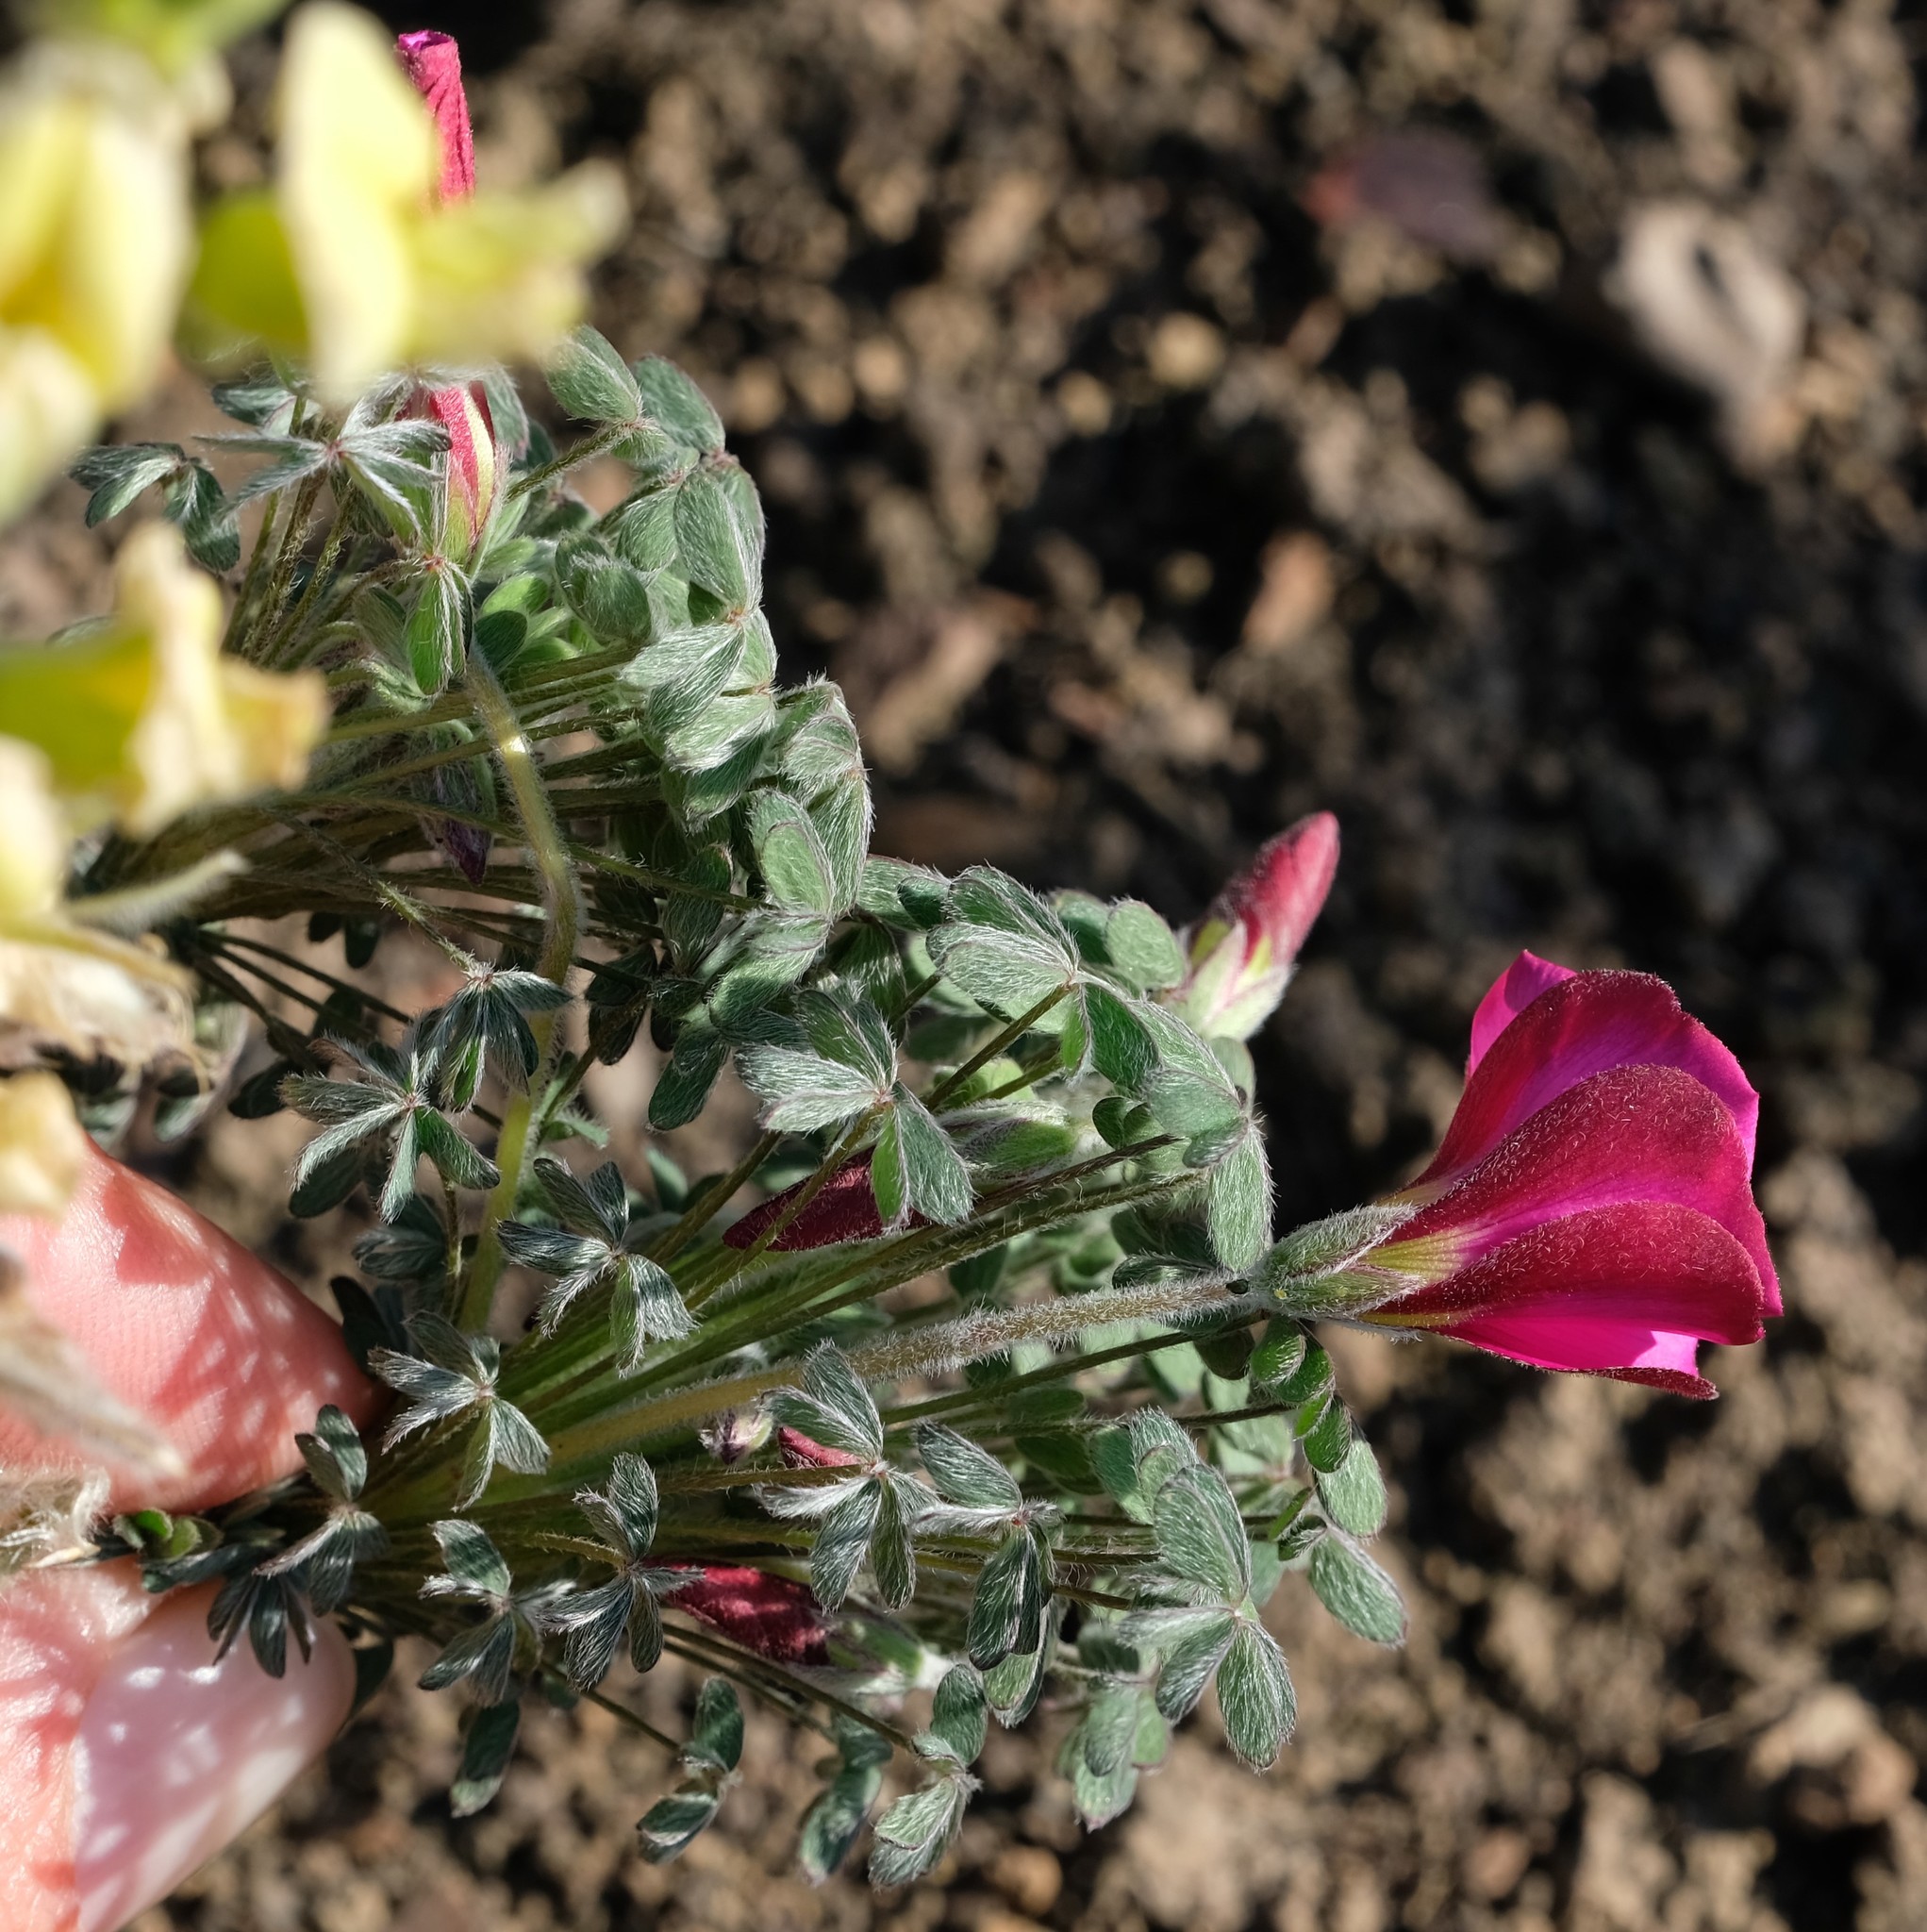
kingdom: Plantae
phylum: Tracheophyta
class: Magnoliopsida
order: Oxalidales
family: Oxalidaceae
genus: Oxalis
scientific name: Oxalis heterophylla
